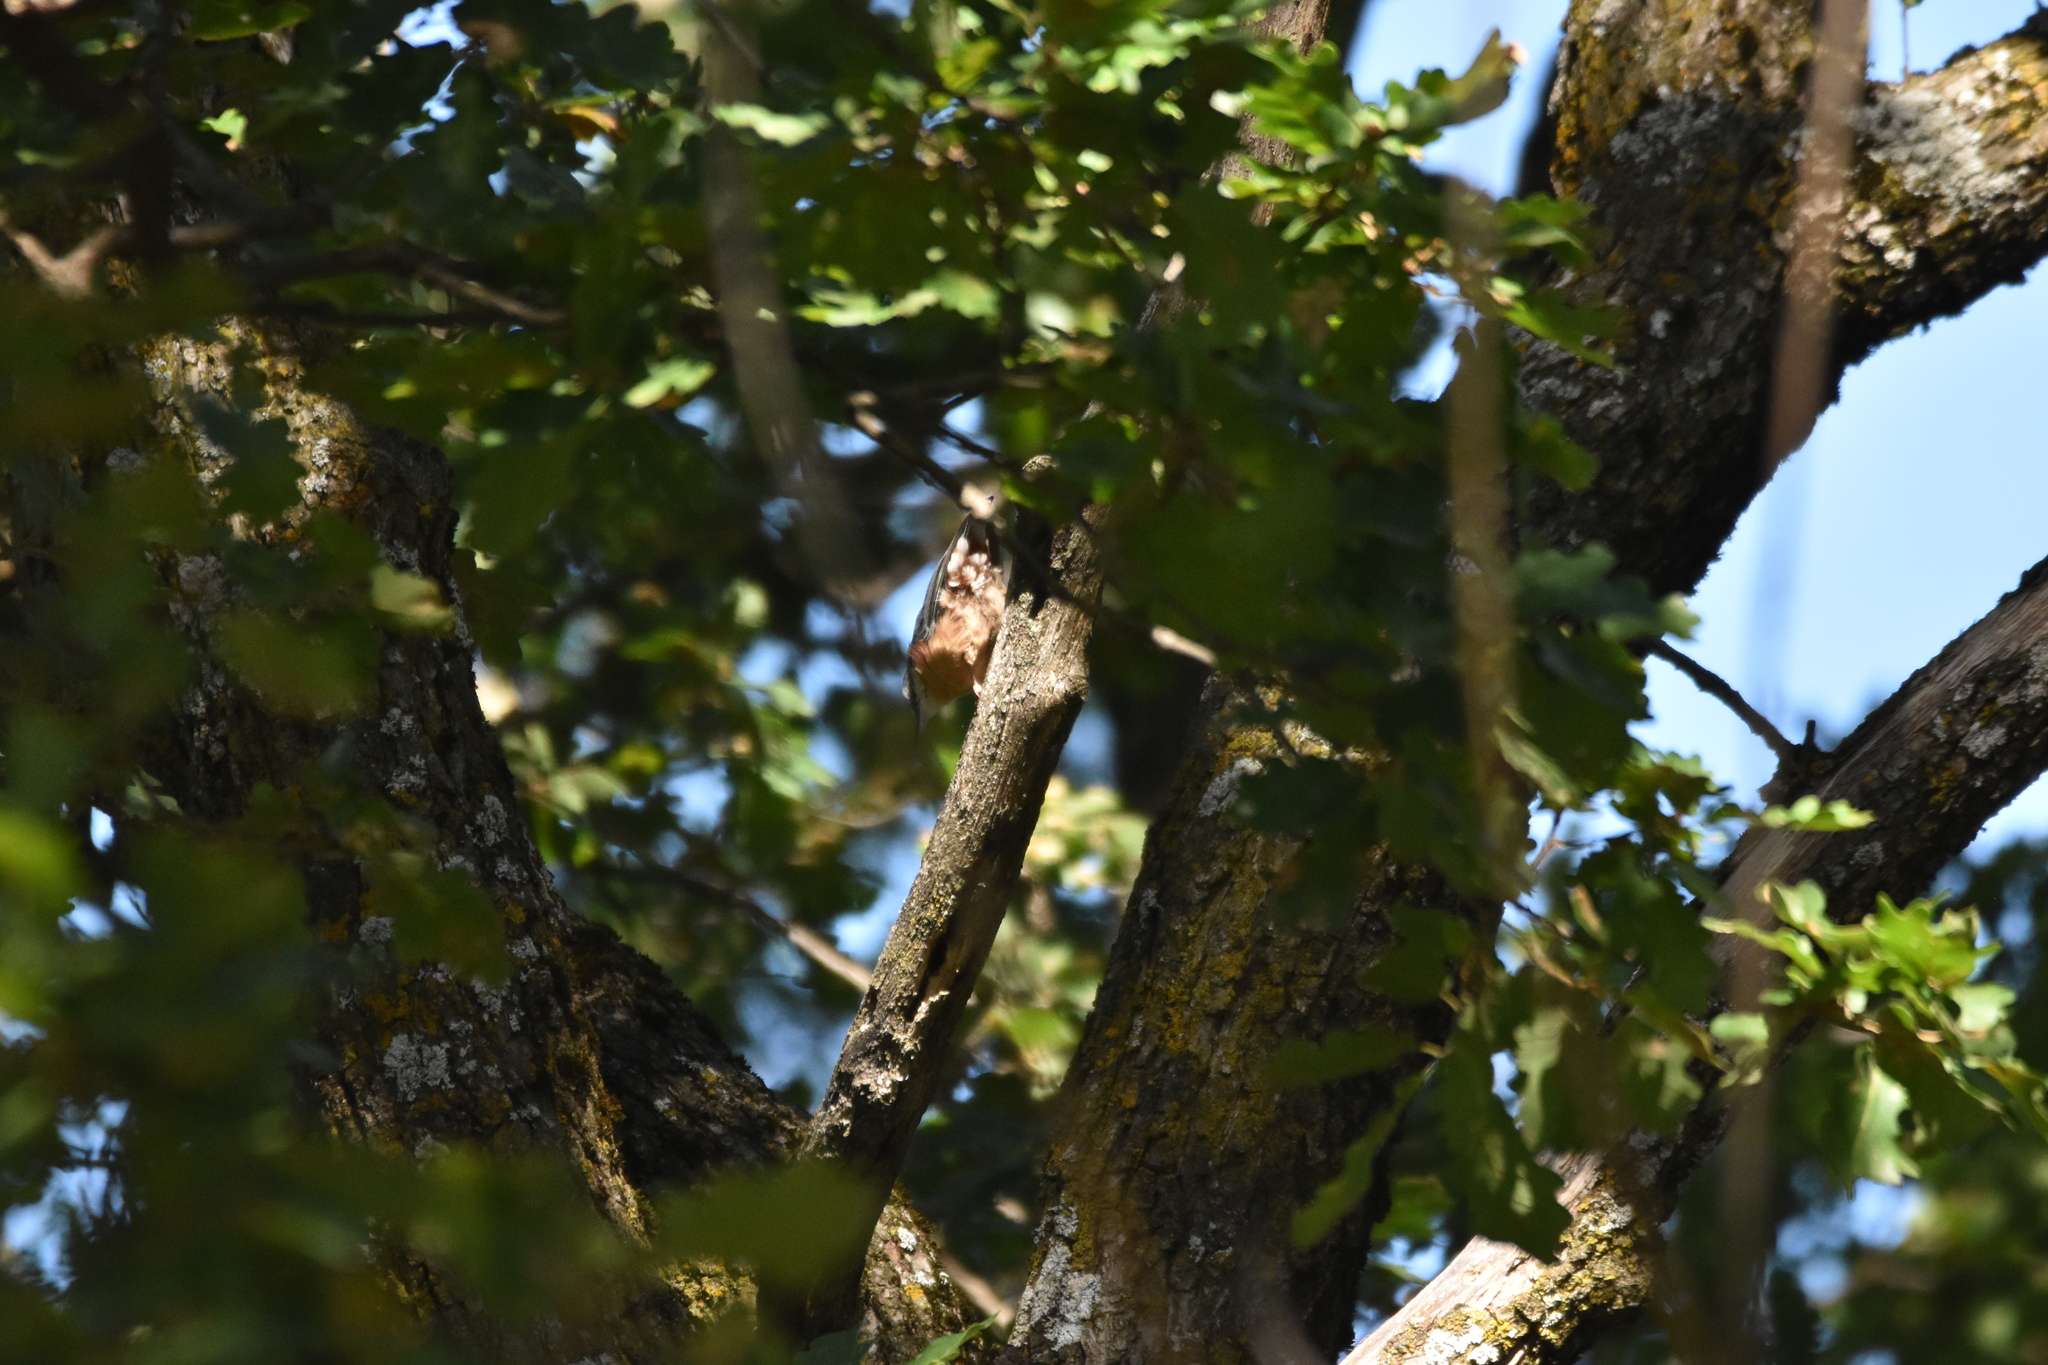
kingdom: Animalia
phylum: Chordata
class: Aves
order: Passeriformes
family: Sittidae
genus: Sitta
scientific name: Sitta europaea
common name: Eurasian nuthatch
